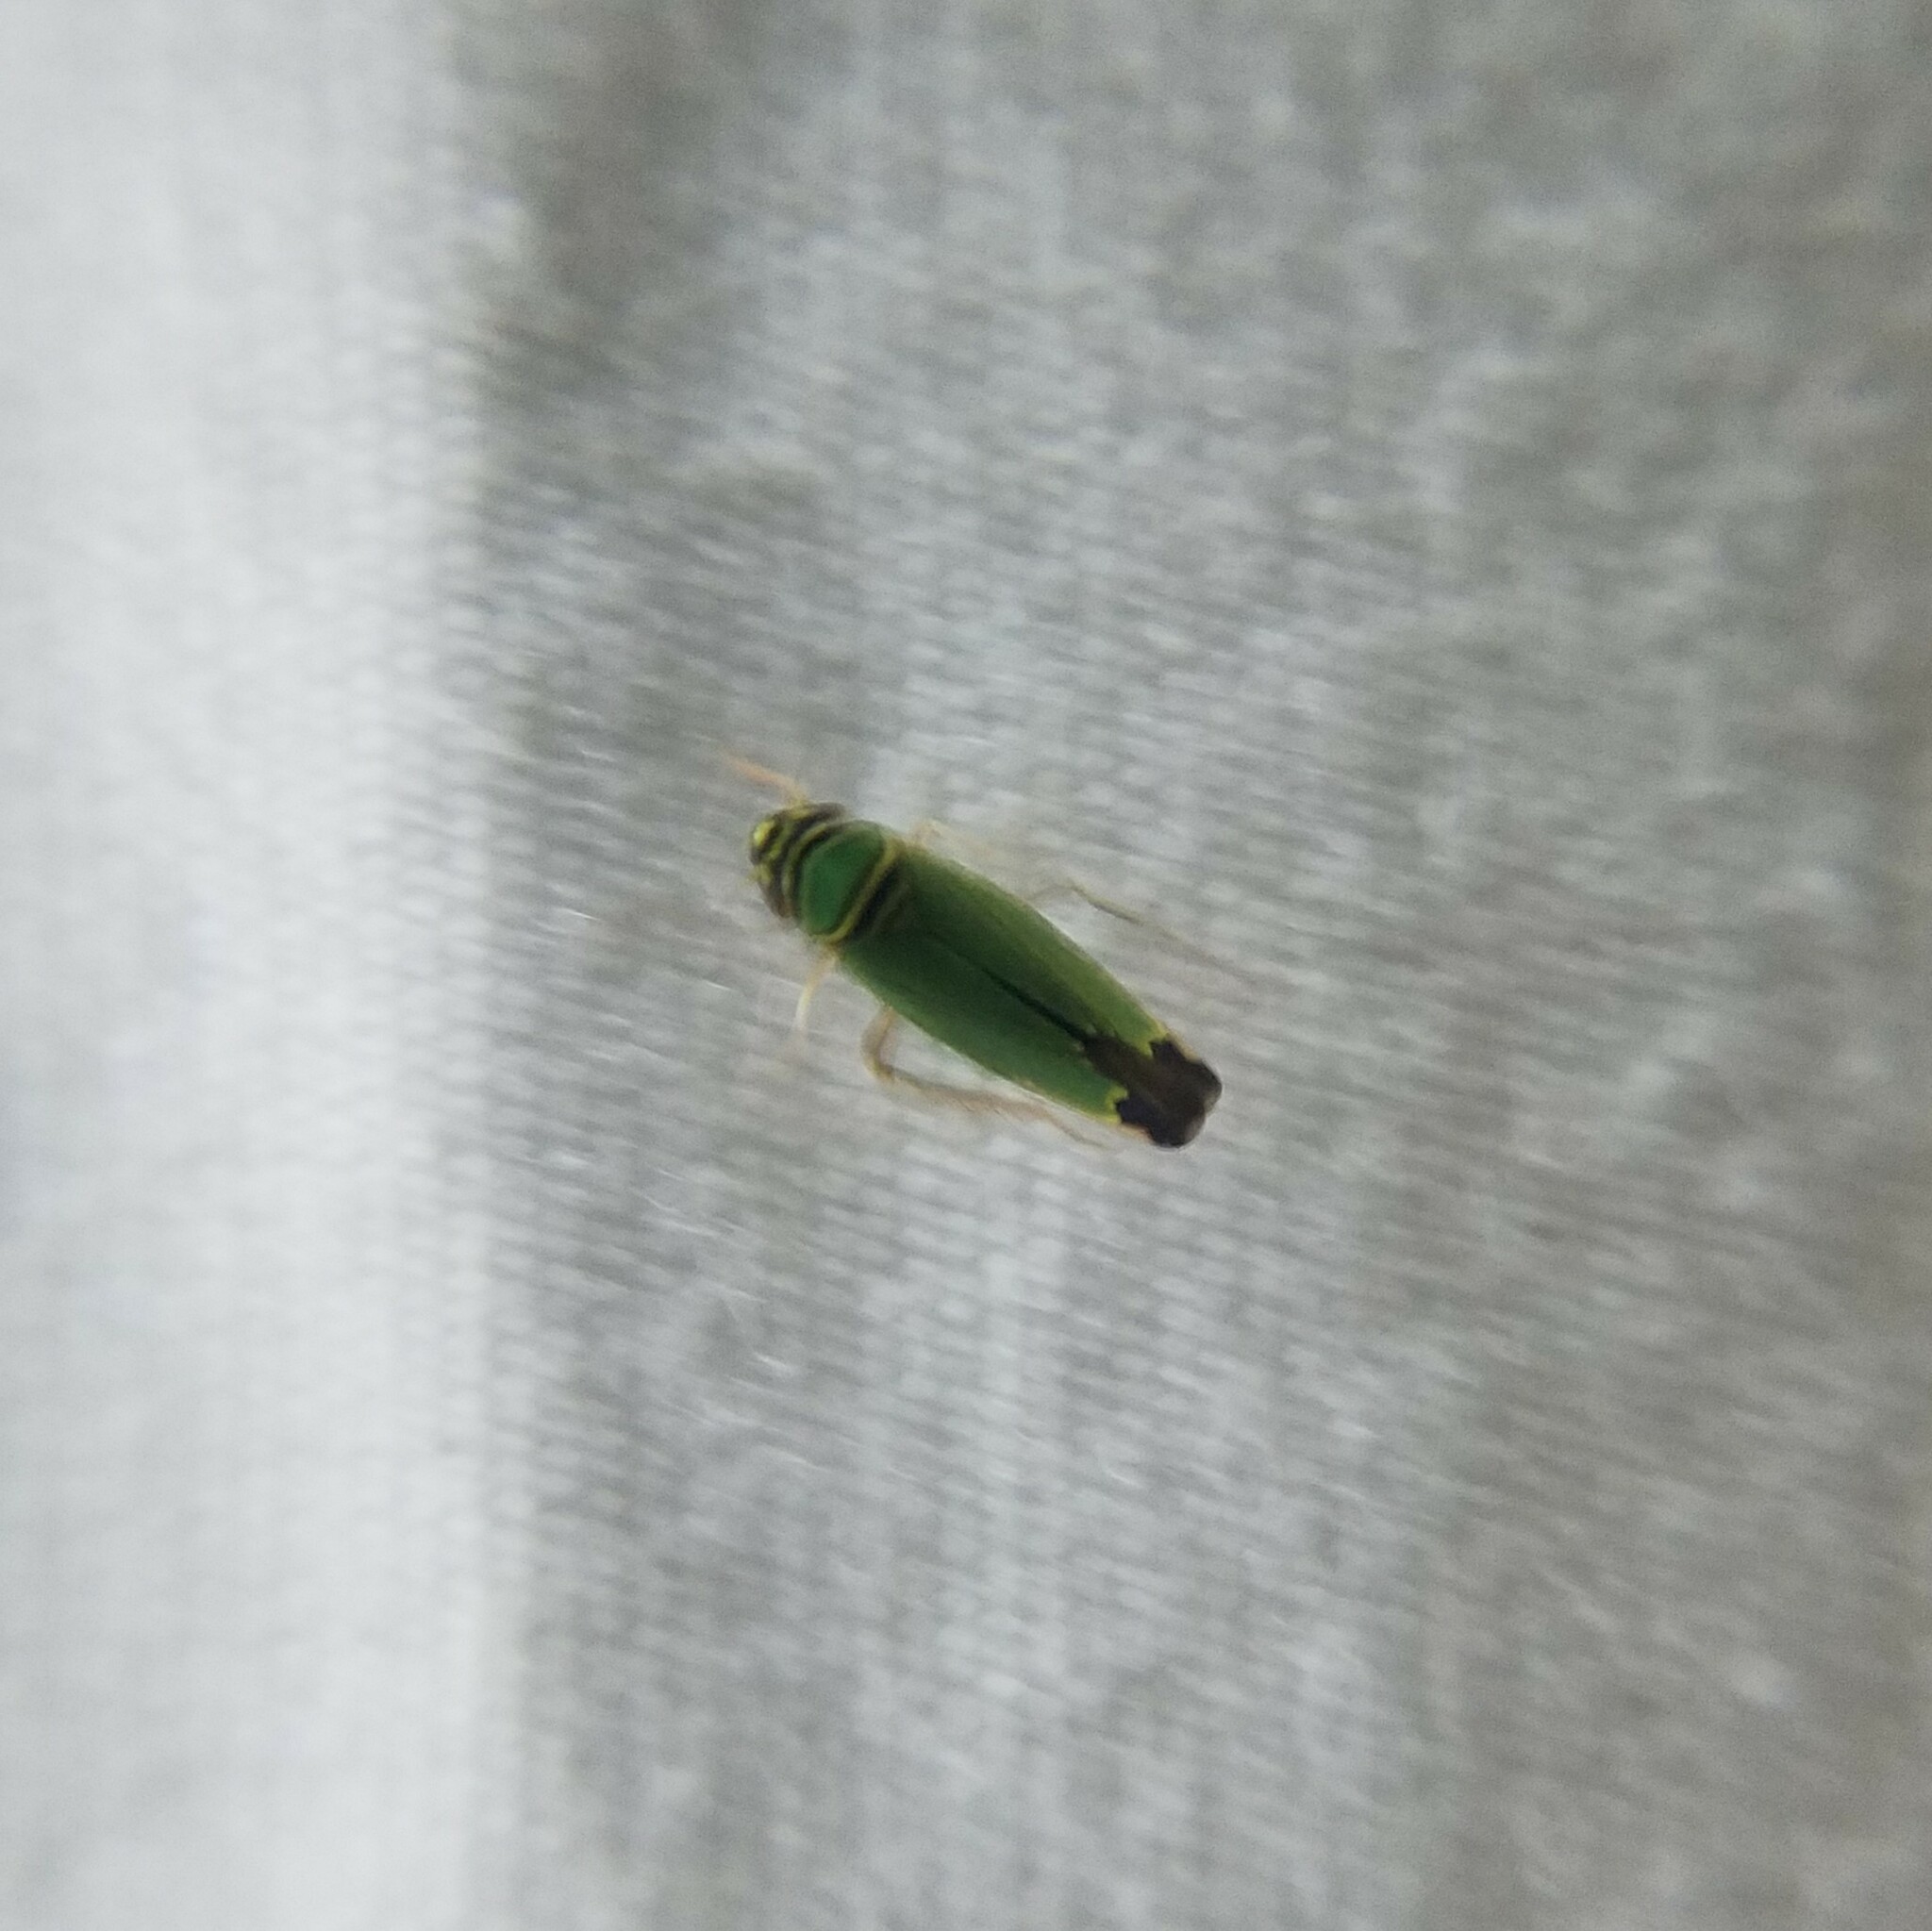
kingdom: Animalia
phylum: Arthropoda
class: Insecta
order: Hemiptera
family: Cicadellidae
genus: Tylozygus
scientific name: Tylozygus geometricus
